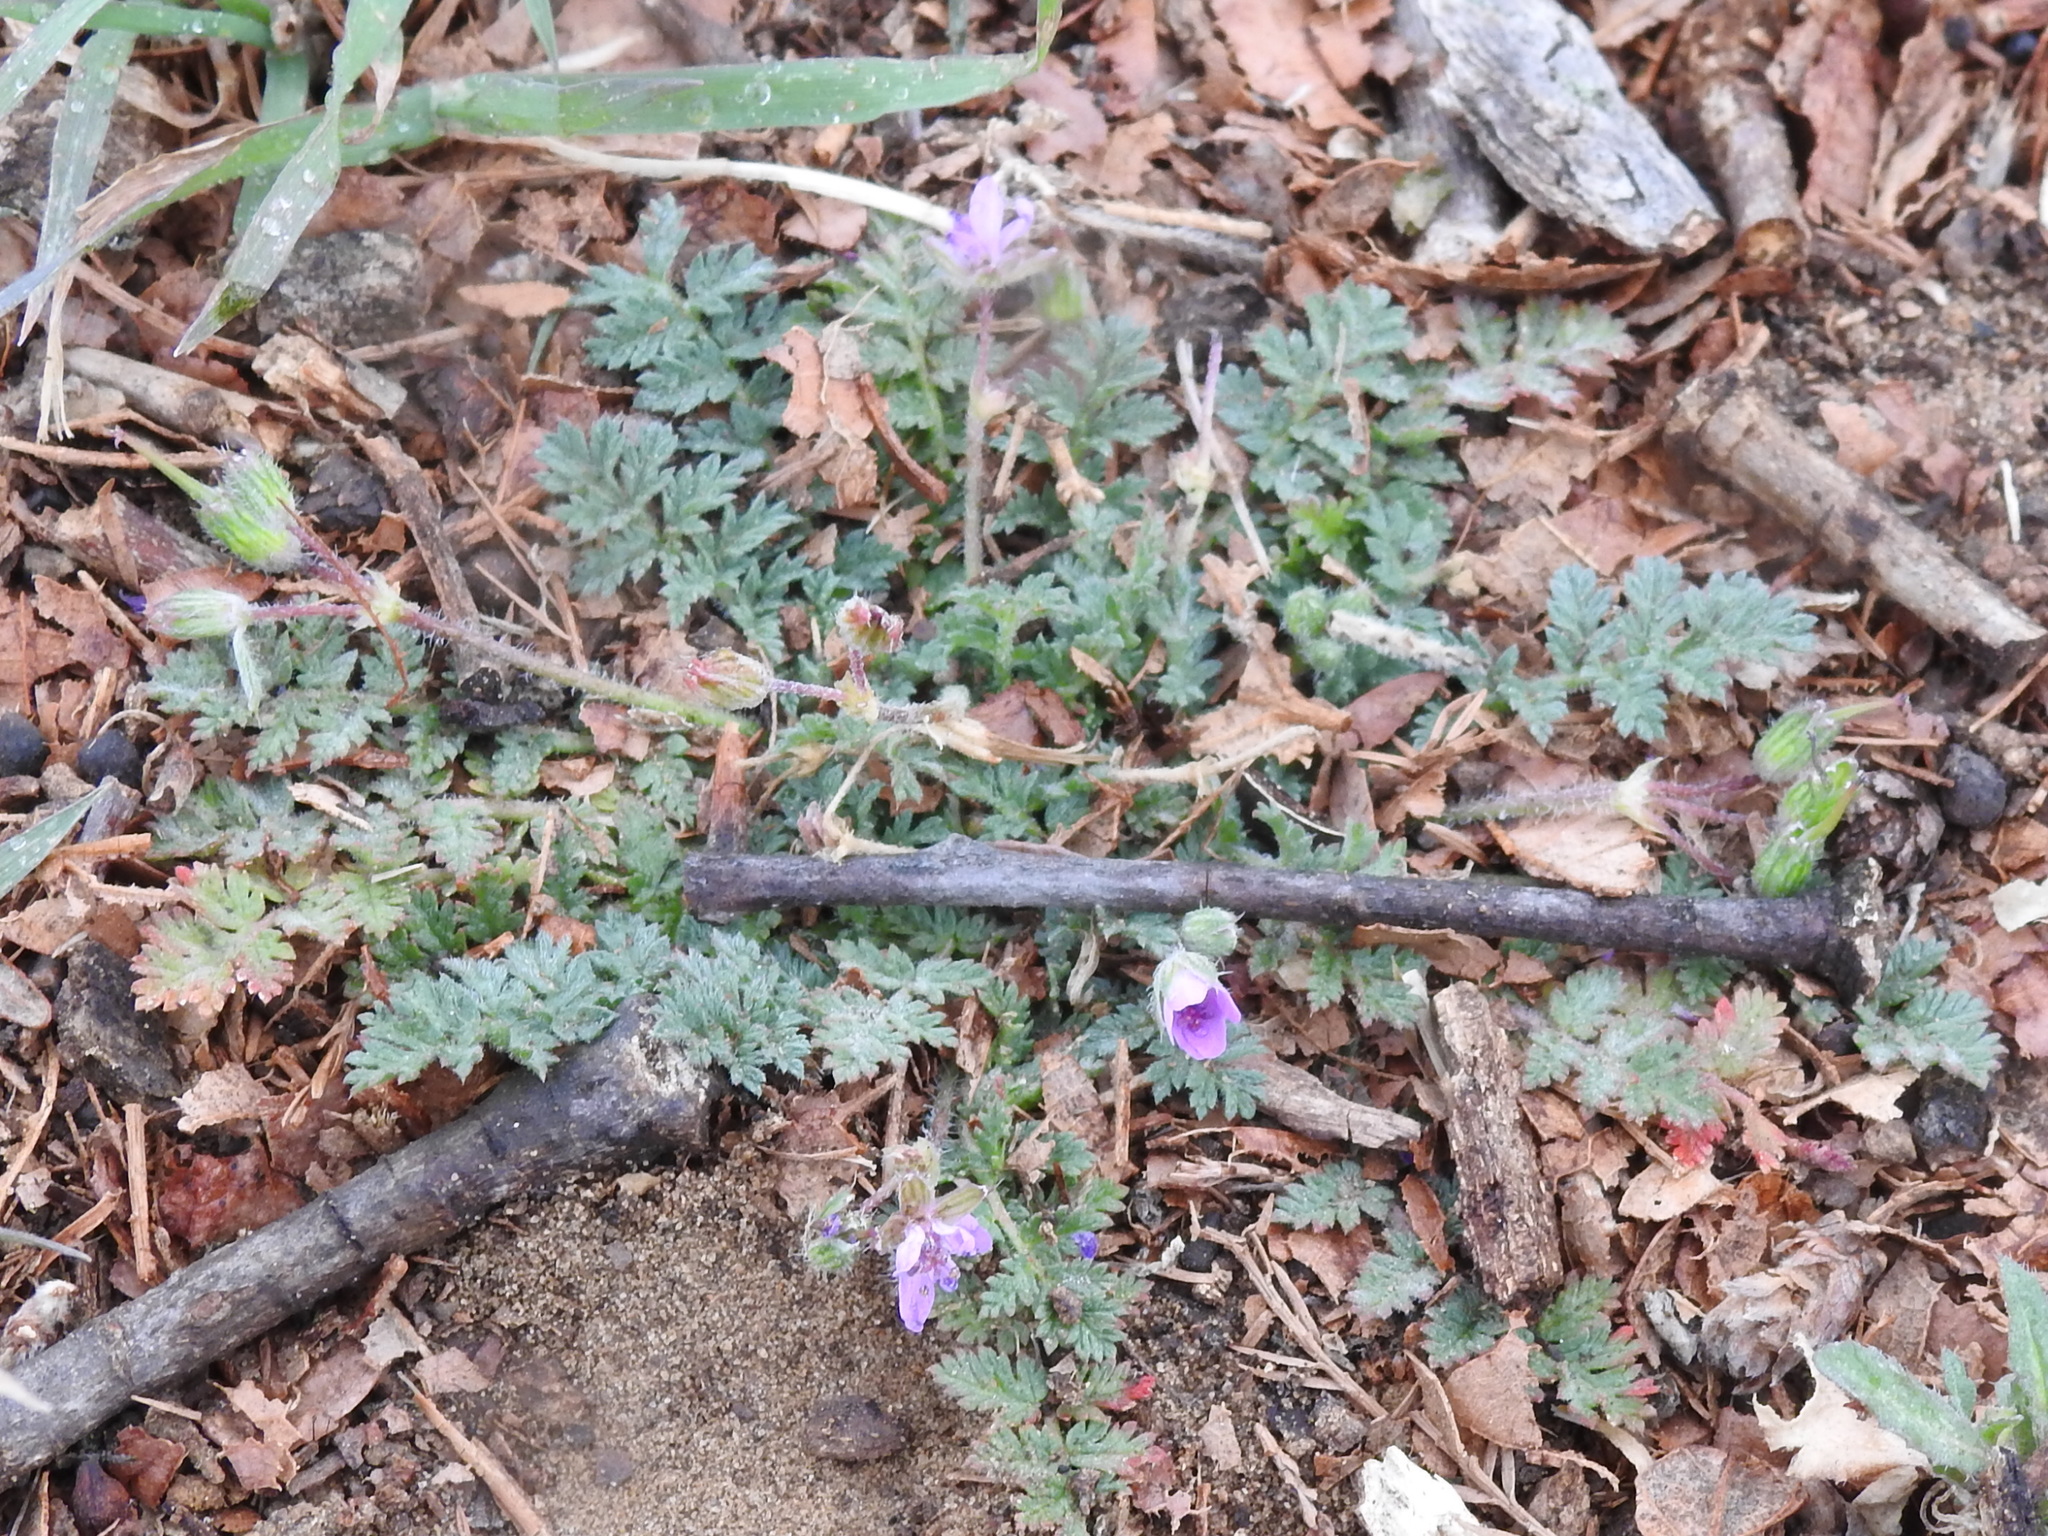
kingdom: Plantae
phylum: Tracheophyta
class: Magnoliopsida
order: Geraniales
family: Geraniaceae
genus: Erodium
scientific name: Erodium cicutarium
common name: Common stork's-bill
